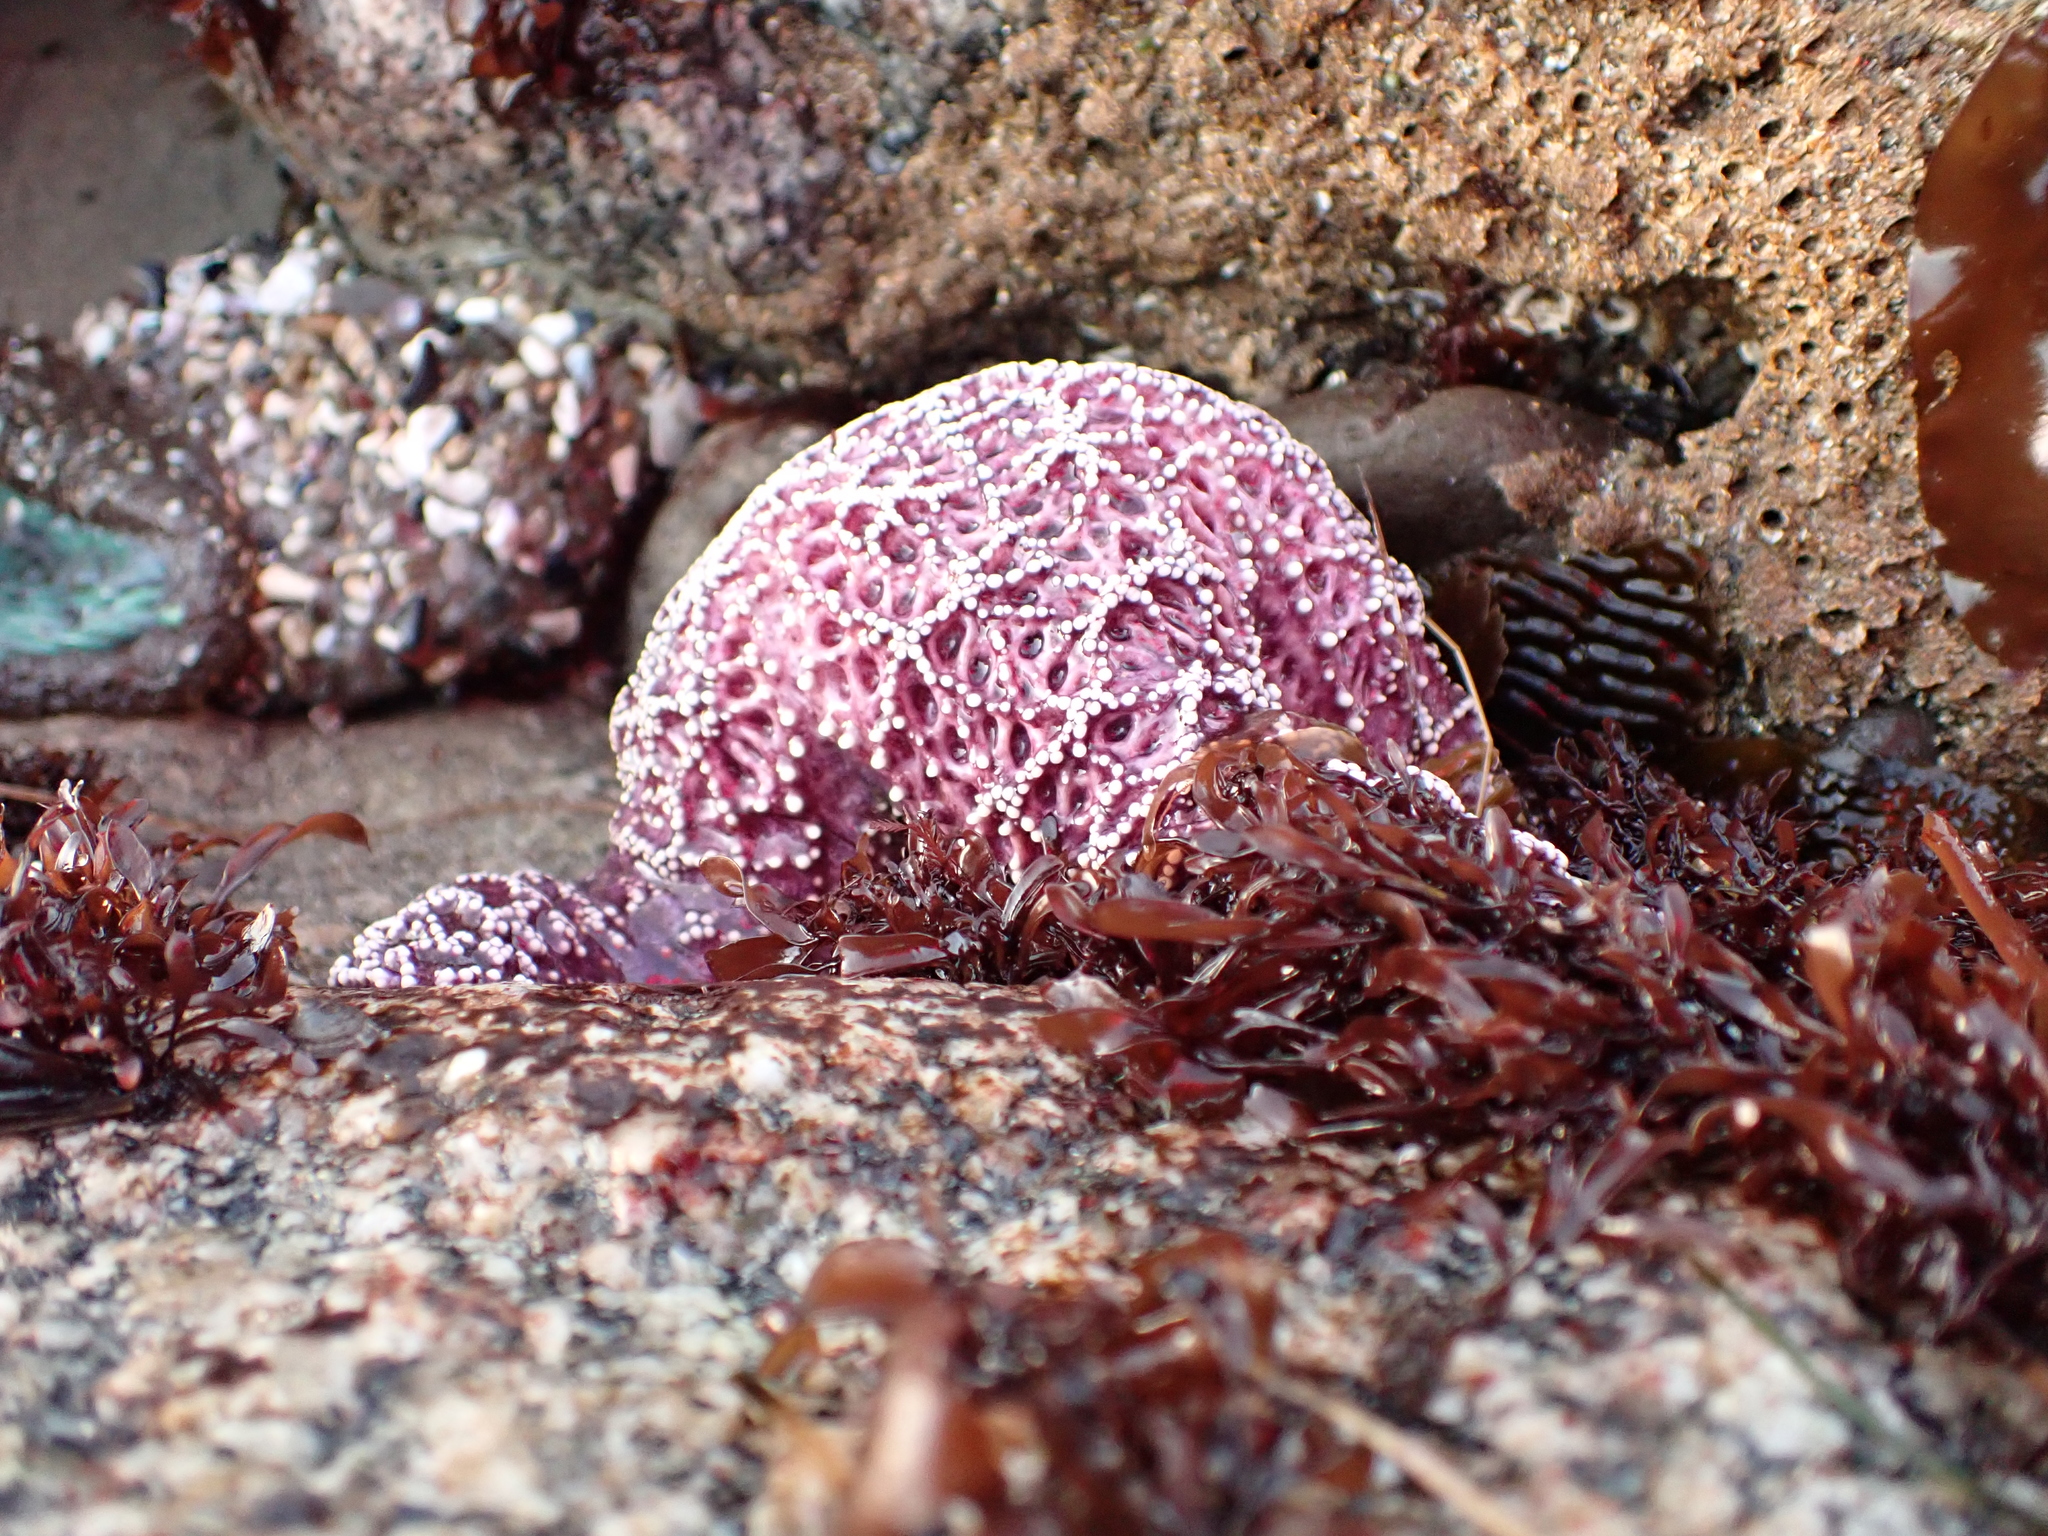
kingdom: Animalia
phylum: Echinodermata
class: Asteroidea
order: Forcipulatida
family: Asteriidae
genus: Pisaster
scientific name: Pisaster ochraceus
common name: Ochre stars
